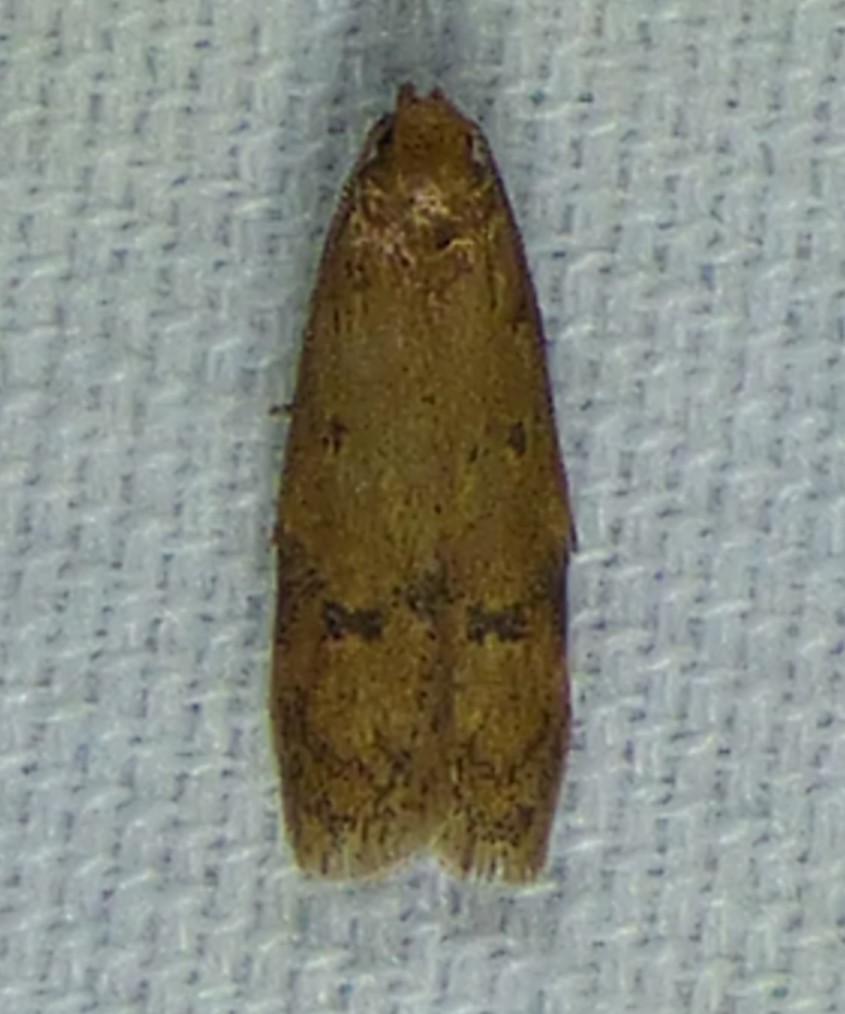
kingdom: Animalia
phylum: Arthropoda
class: Insecta
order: Lepidoptera
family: Autostichidae
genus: Gerdana
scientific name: Gerdana caritella
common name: Gerdana moth
